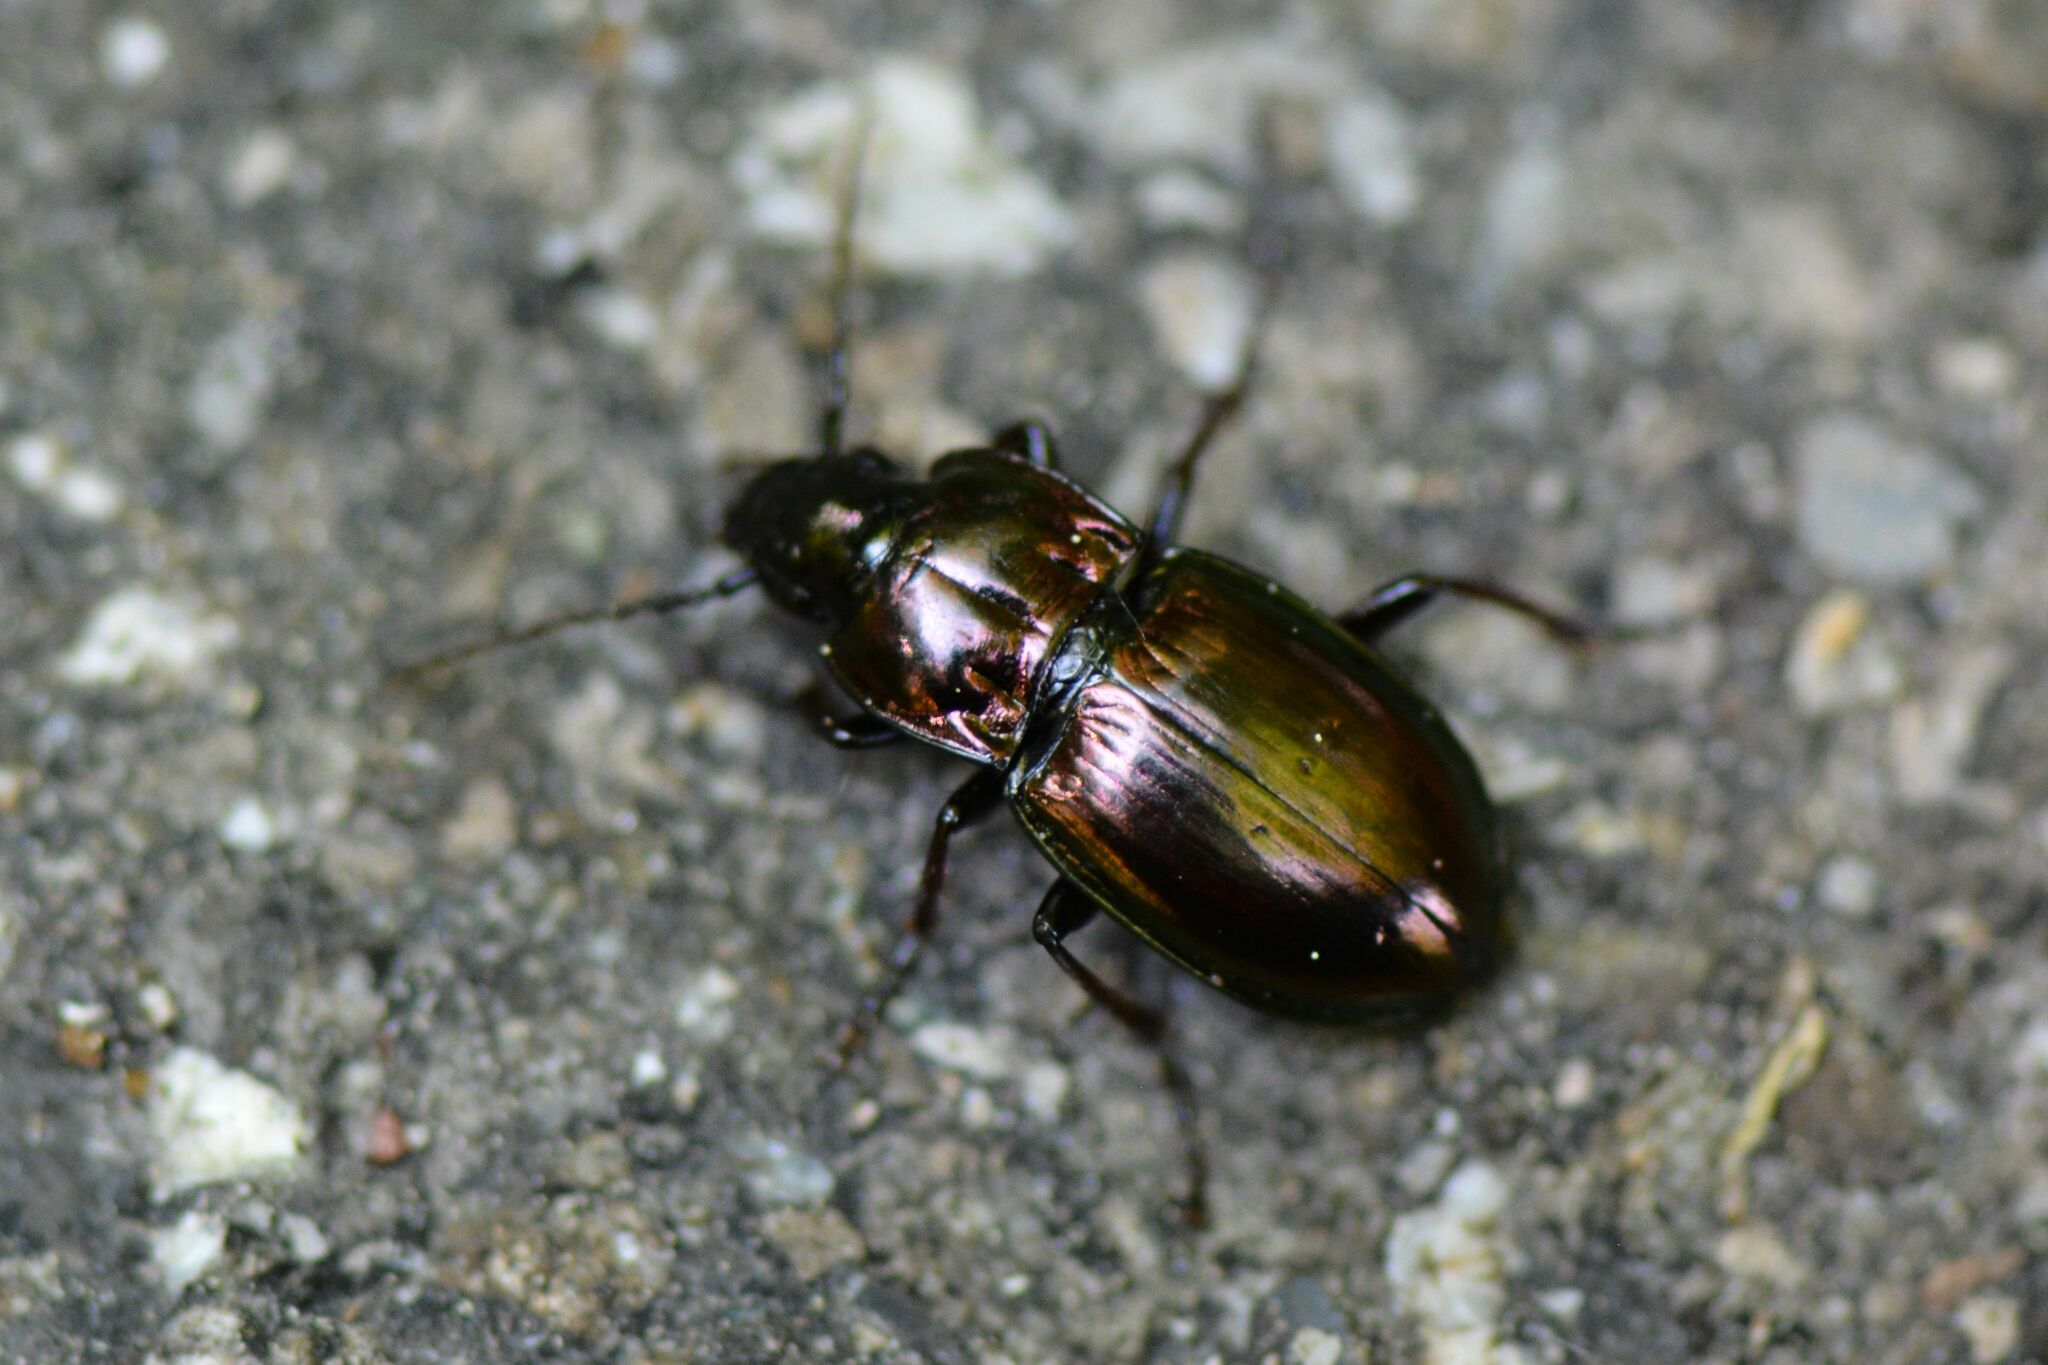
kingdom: Animalia
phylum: Arthropoda
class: Insecta
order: Coleoptera
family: Carabidae
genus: Pterostichus
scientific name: Pterostichus burmeisteri
